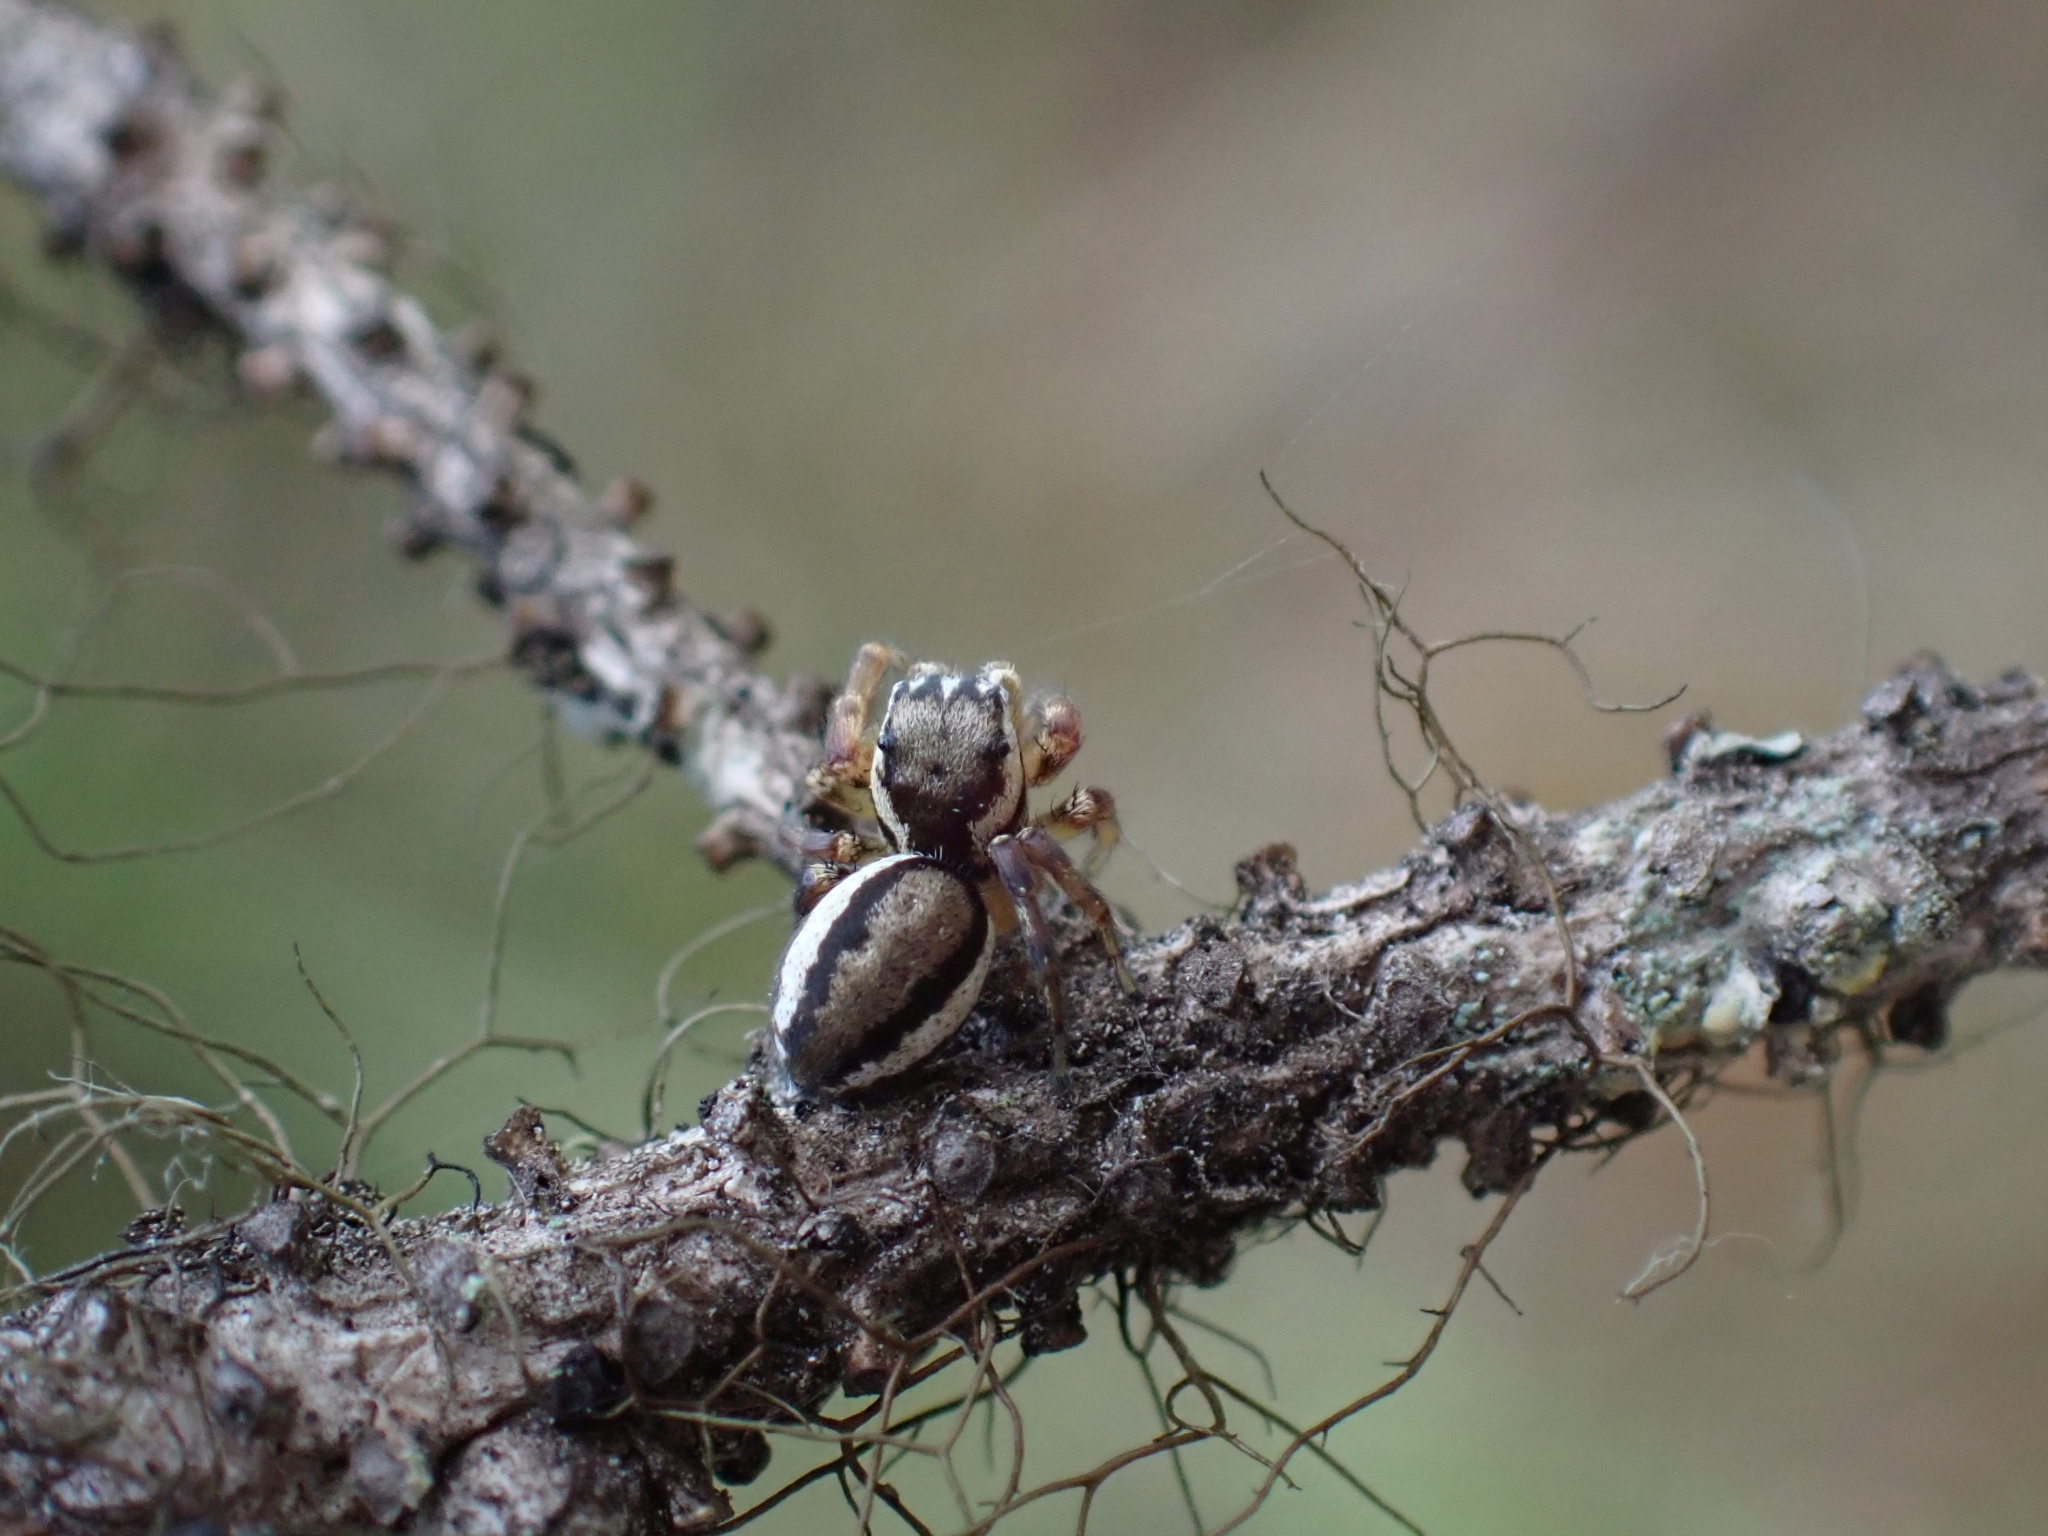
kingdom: Animalia
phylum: Arthropoda
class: Arachnida
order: Araneae
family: Salticidae
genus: Pelegrina
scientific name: Pelegrina flavipes
